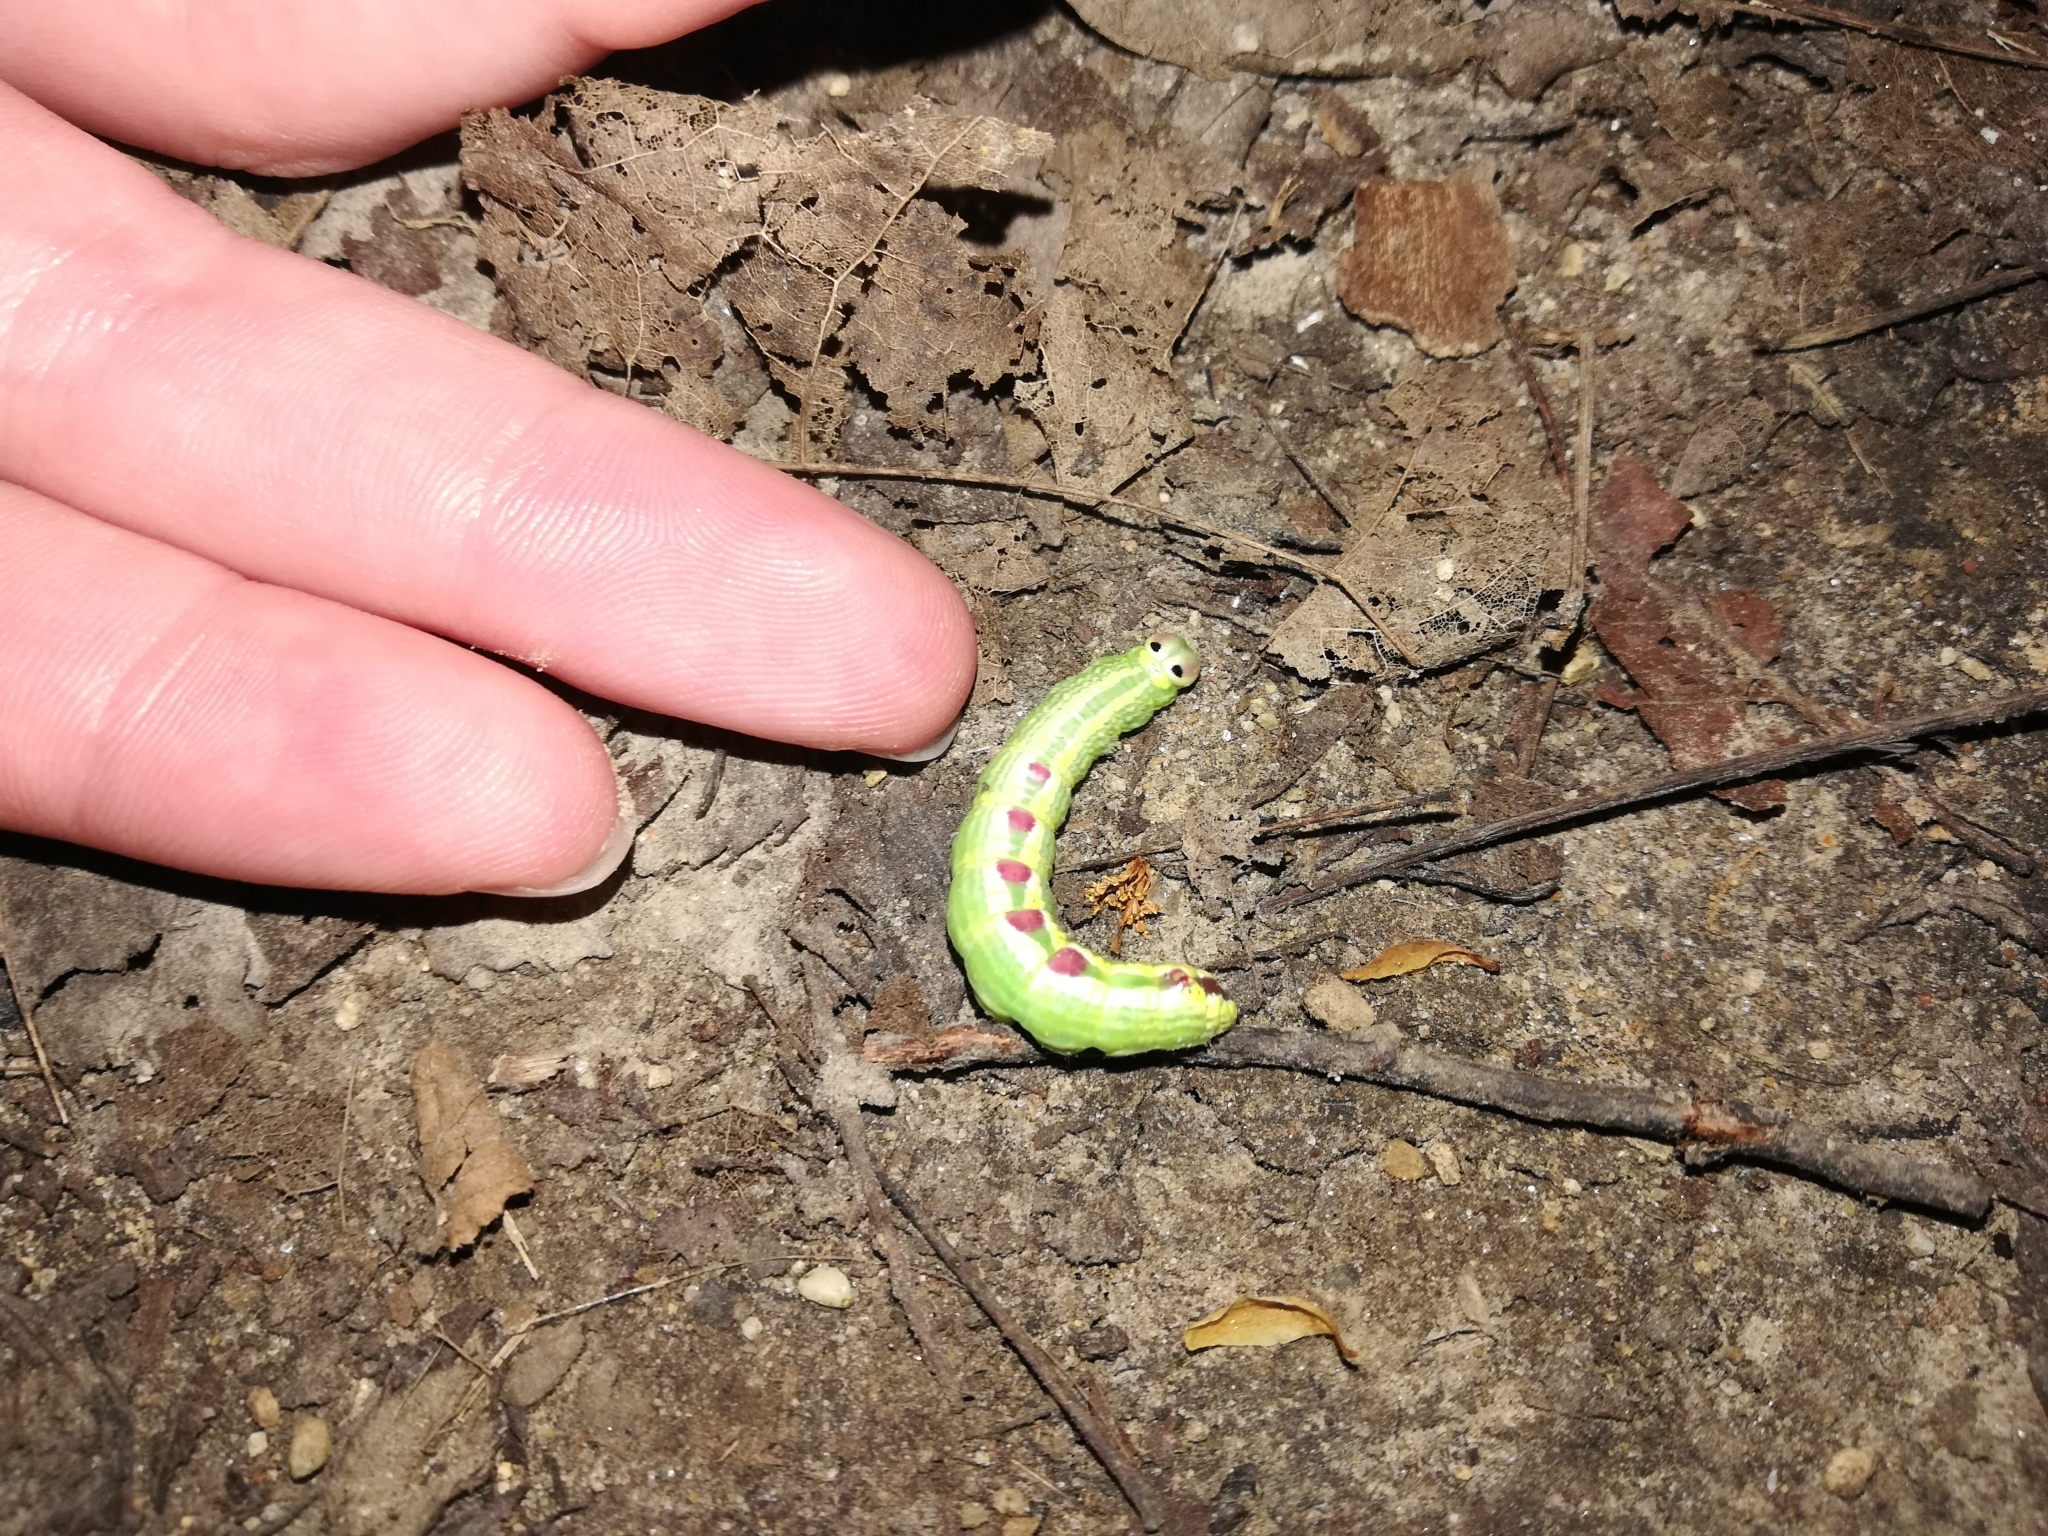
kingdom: Animalia
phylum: Arthropoda
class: Insecta
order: Lepidoptera
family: Notodontidae
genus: Ellida
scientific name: Ellida caniplaga
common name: Linden prominent
